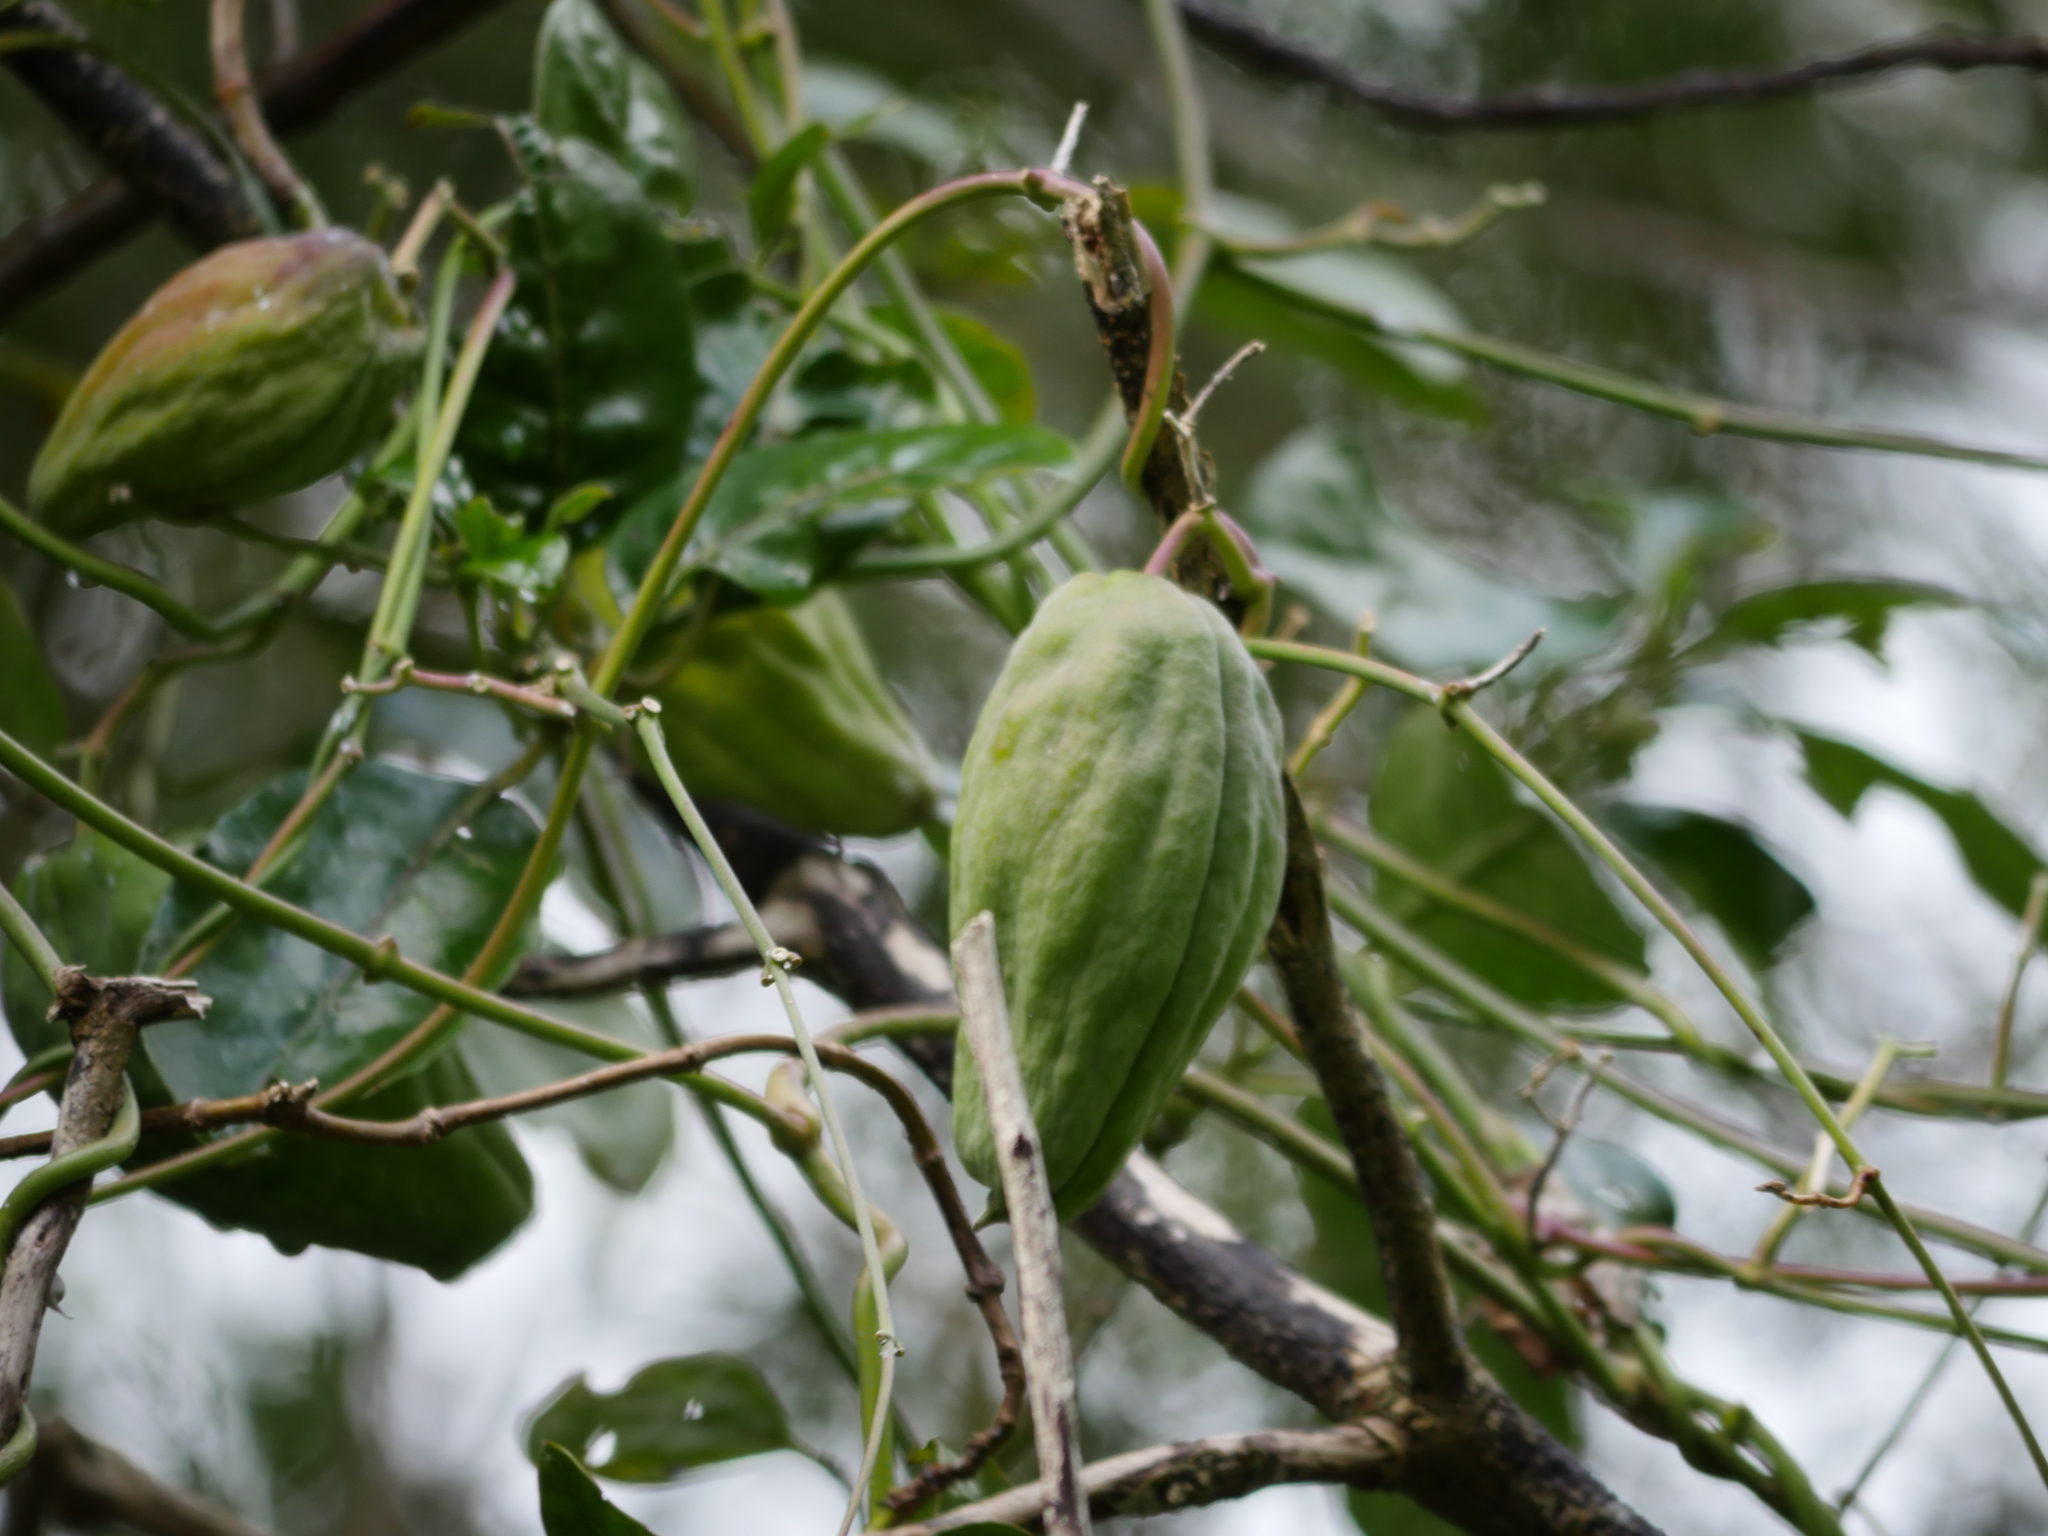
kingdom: Plantae
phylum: Tracheophyta
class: Magnoliopsida
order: Gentianales
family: Apocynaceae
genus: Araujia
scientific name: Araujia sericifera
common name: White bladderflower
